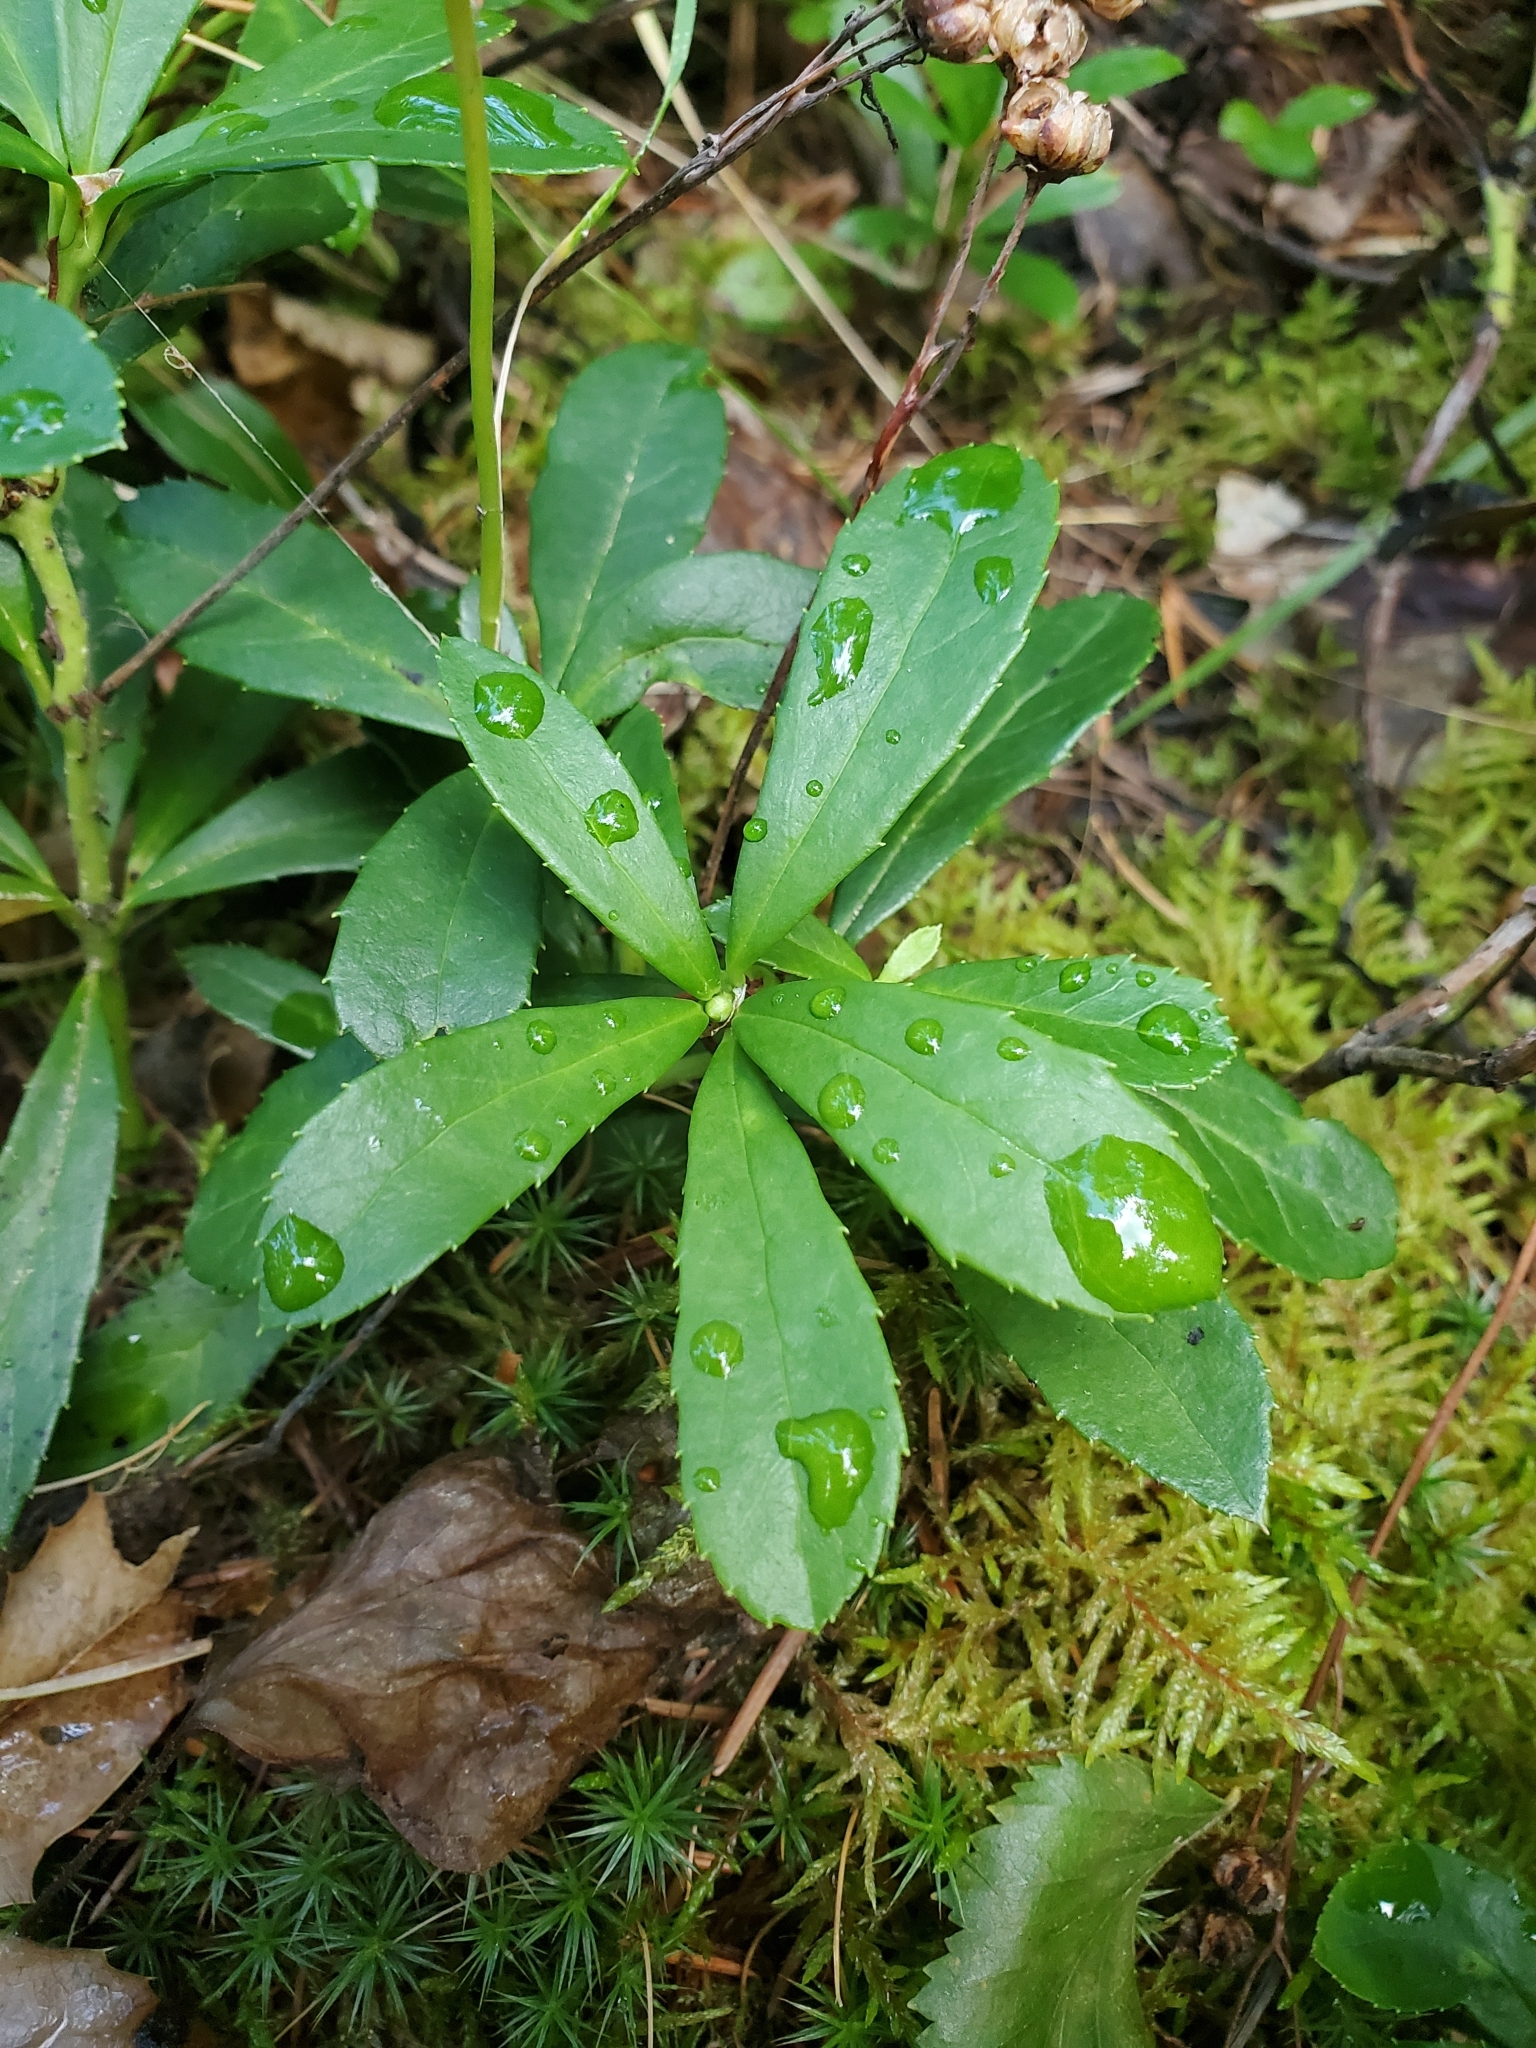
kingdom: Plantae
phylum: Tracheophyta
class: Magnoliopsida
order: Ericales
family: Ericaceae
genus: Chimaphila
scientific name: Chimaphila umbellata
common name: Pipsissewa
